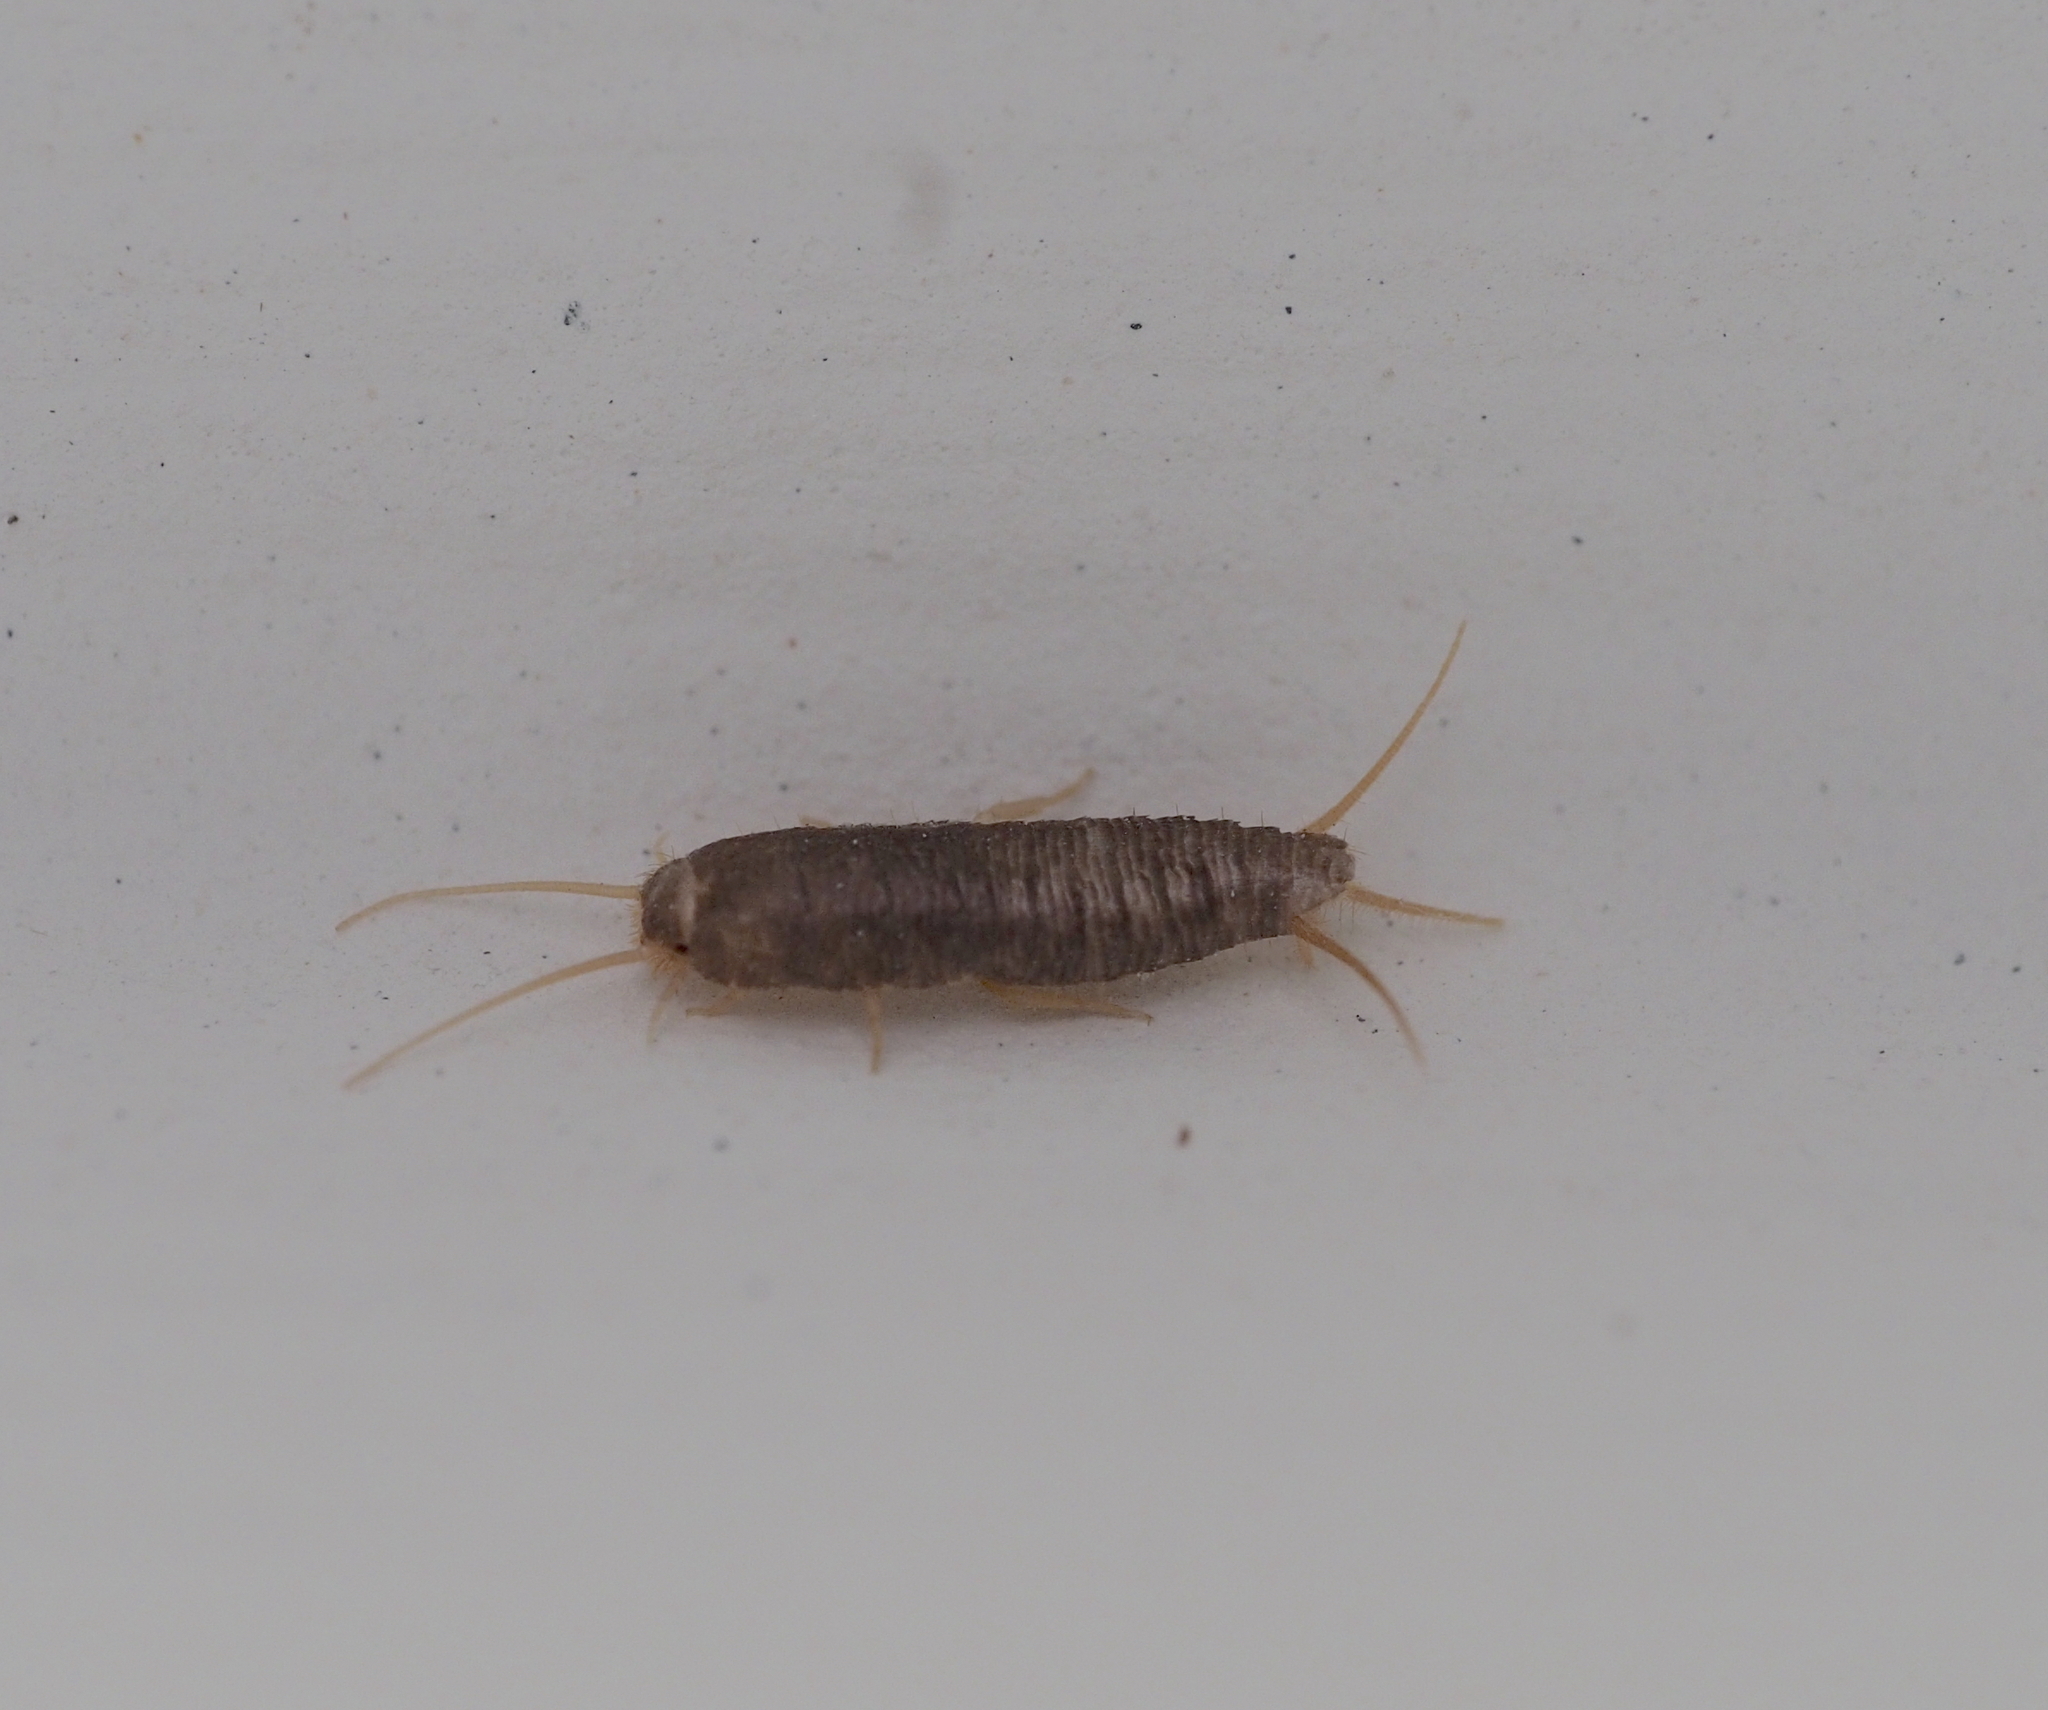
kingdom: Animalia
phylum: Arthropoda
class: Insecta
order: Zygentoma
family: Lepismatidae
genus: Lepisma
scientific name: Lepisma saccharinum
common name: Silverfish
